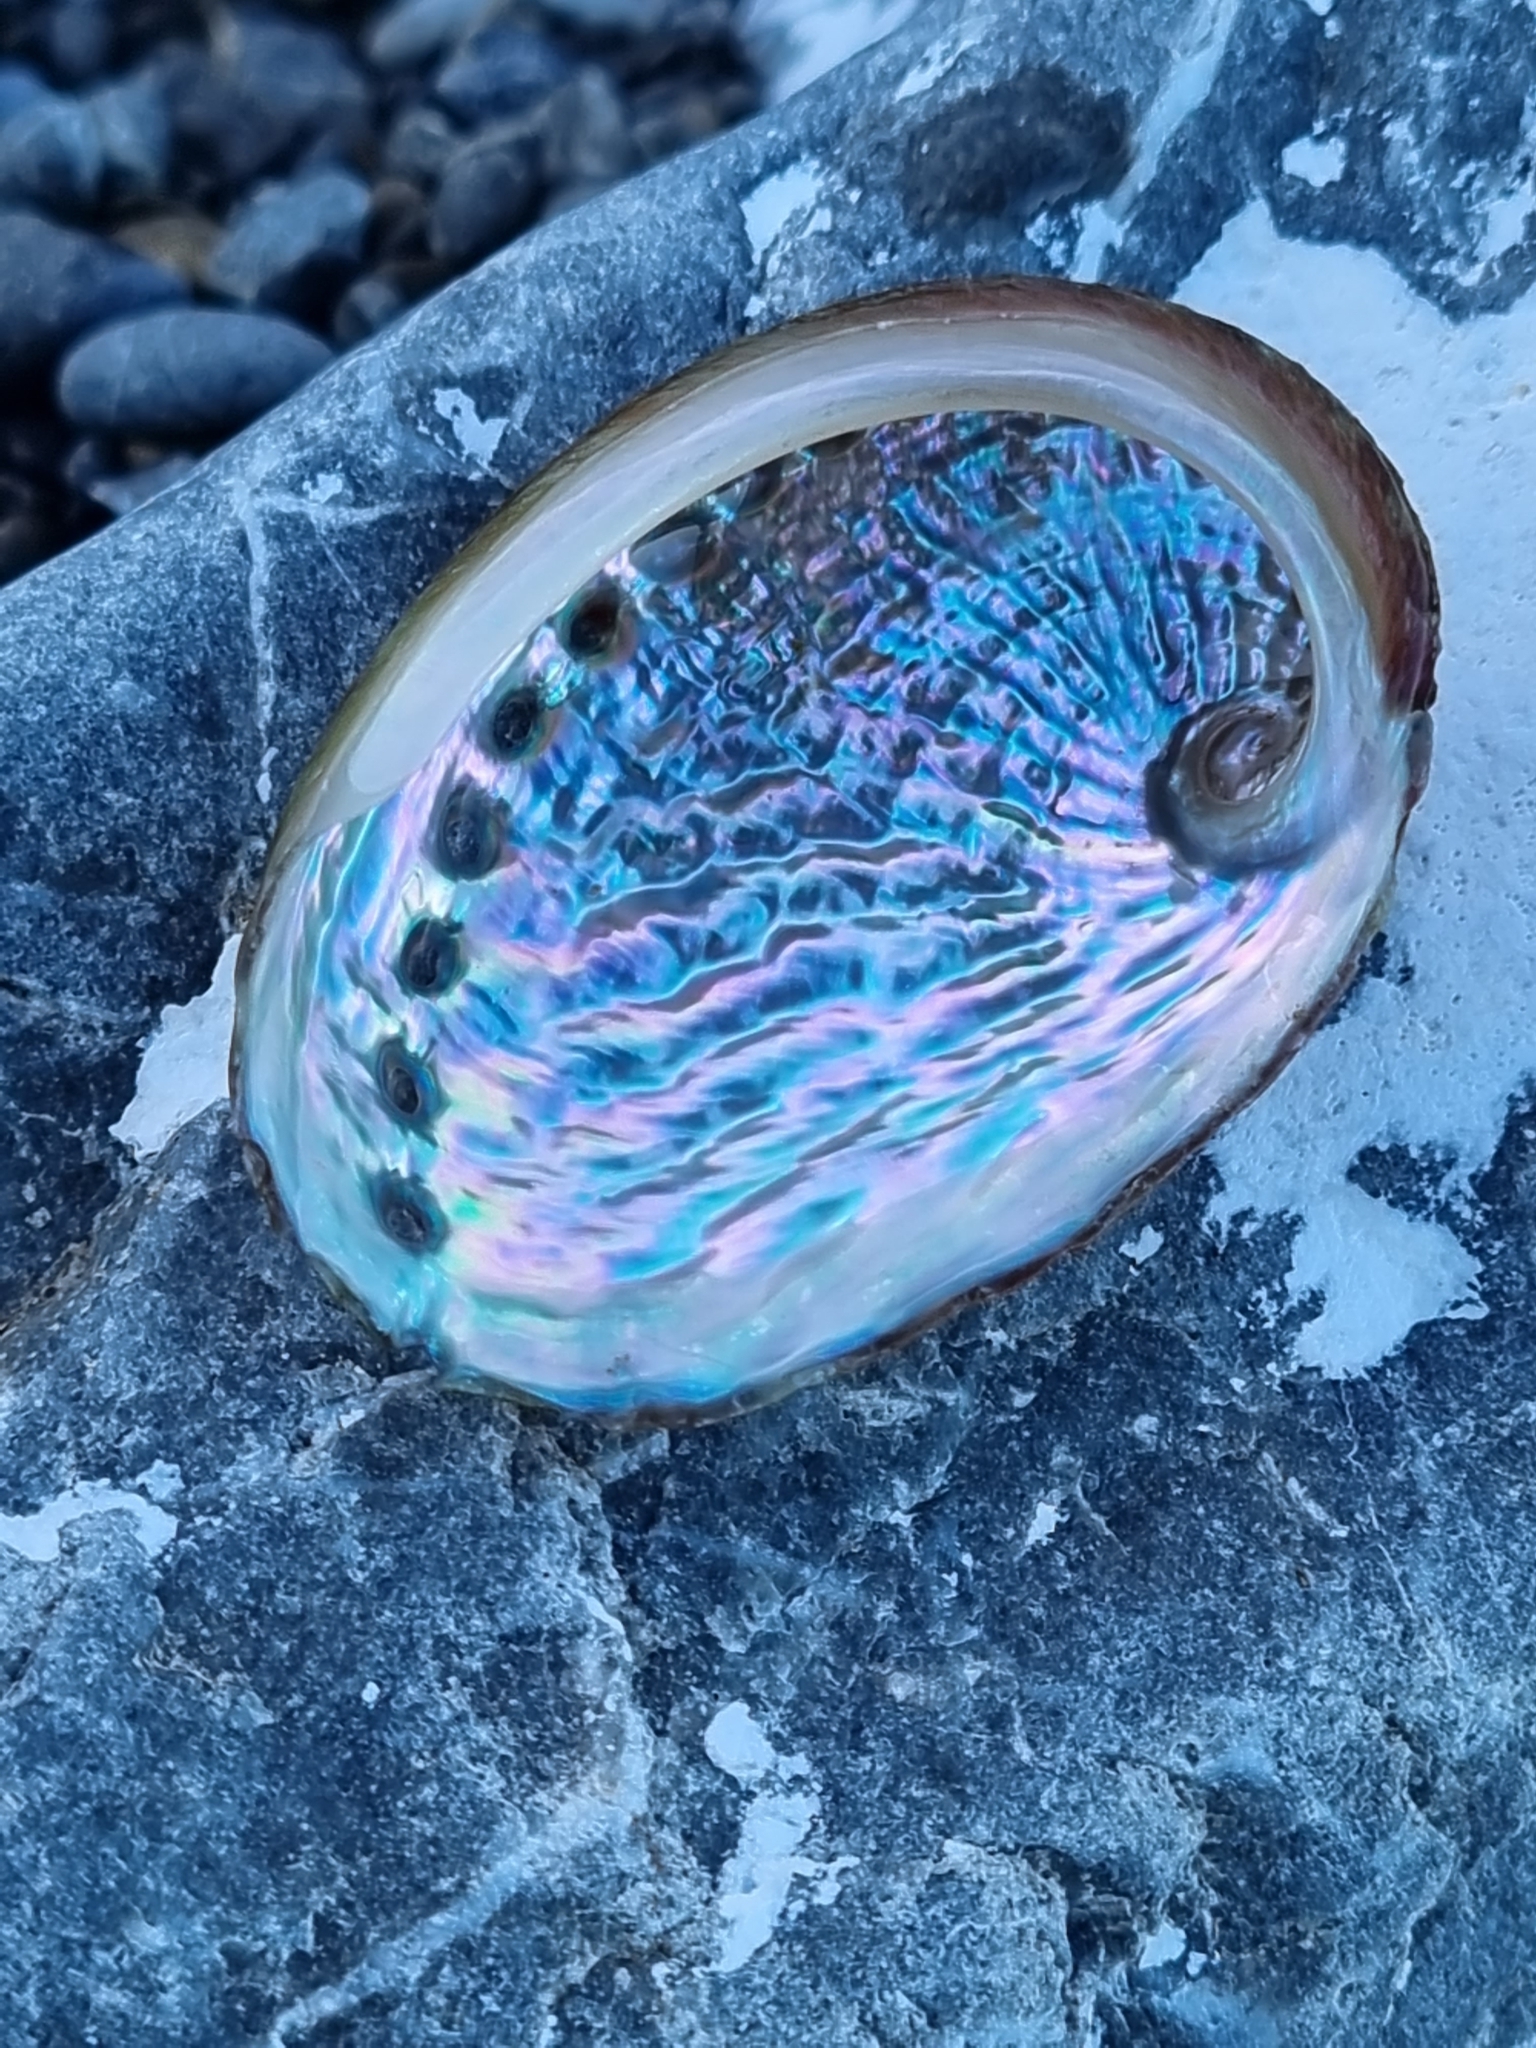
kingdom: Animalia
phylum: Mollusca
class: Gastropoda
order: Lepetellida
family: Haliotidae
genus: Haliotis
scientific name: Haliotis australis
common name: Silver abalone
